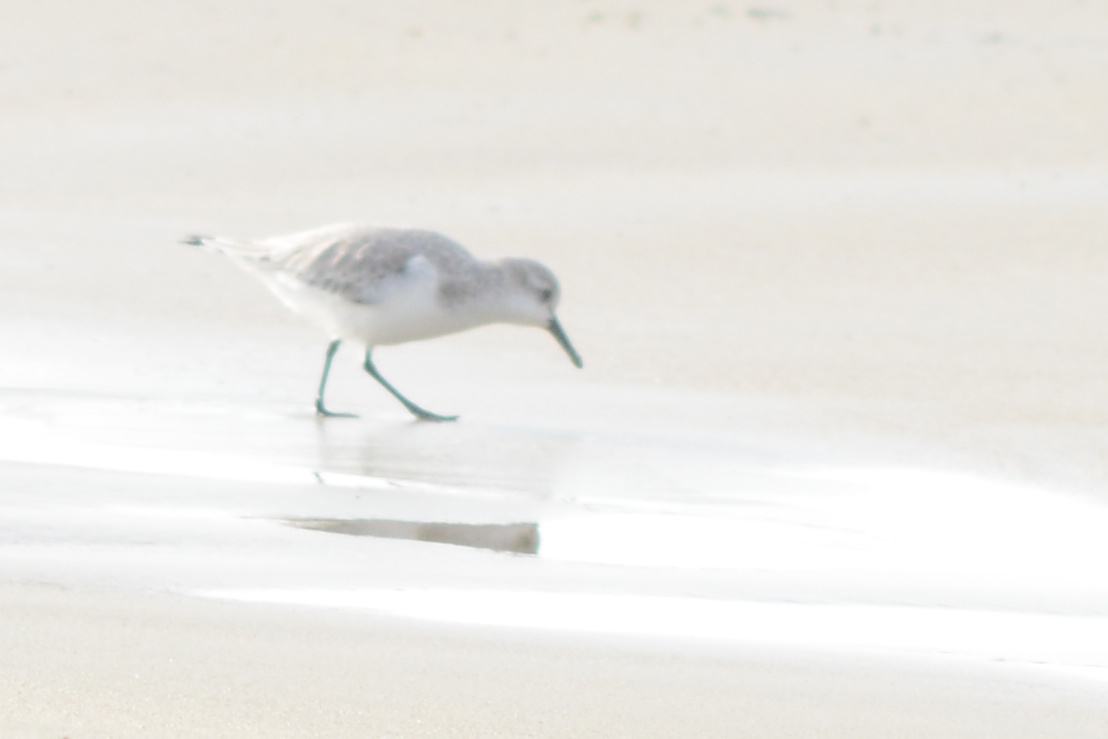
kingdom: Animalia
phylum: Chordata
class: Aves
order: Charadriiformes
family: Scolopacidae
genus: Calidris
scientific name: Calidris alba
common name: Sanderling
